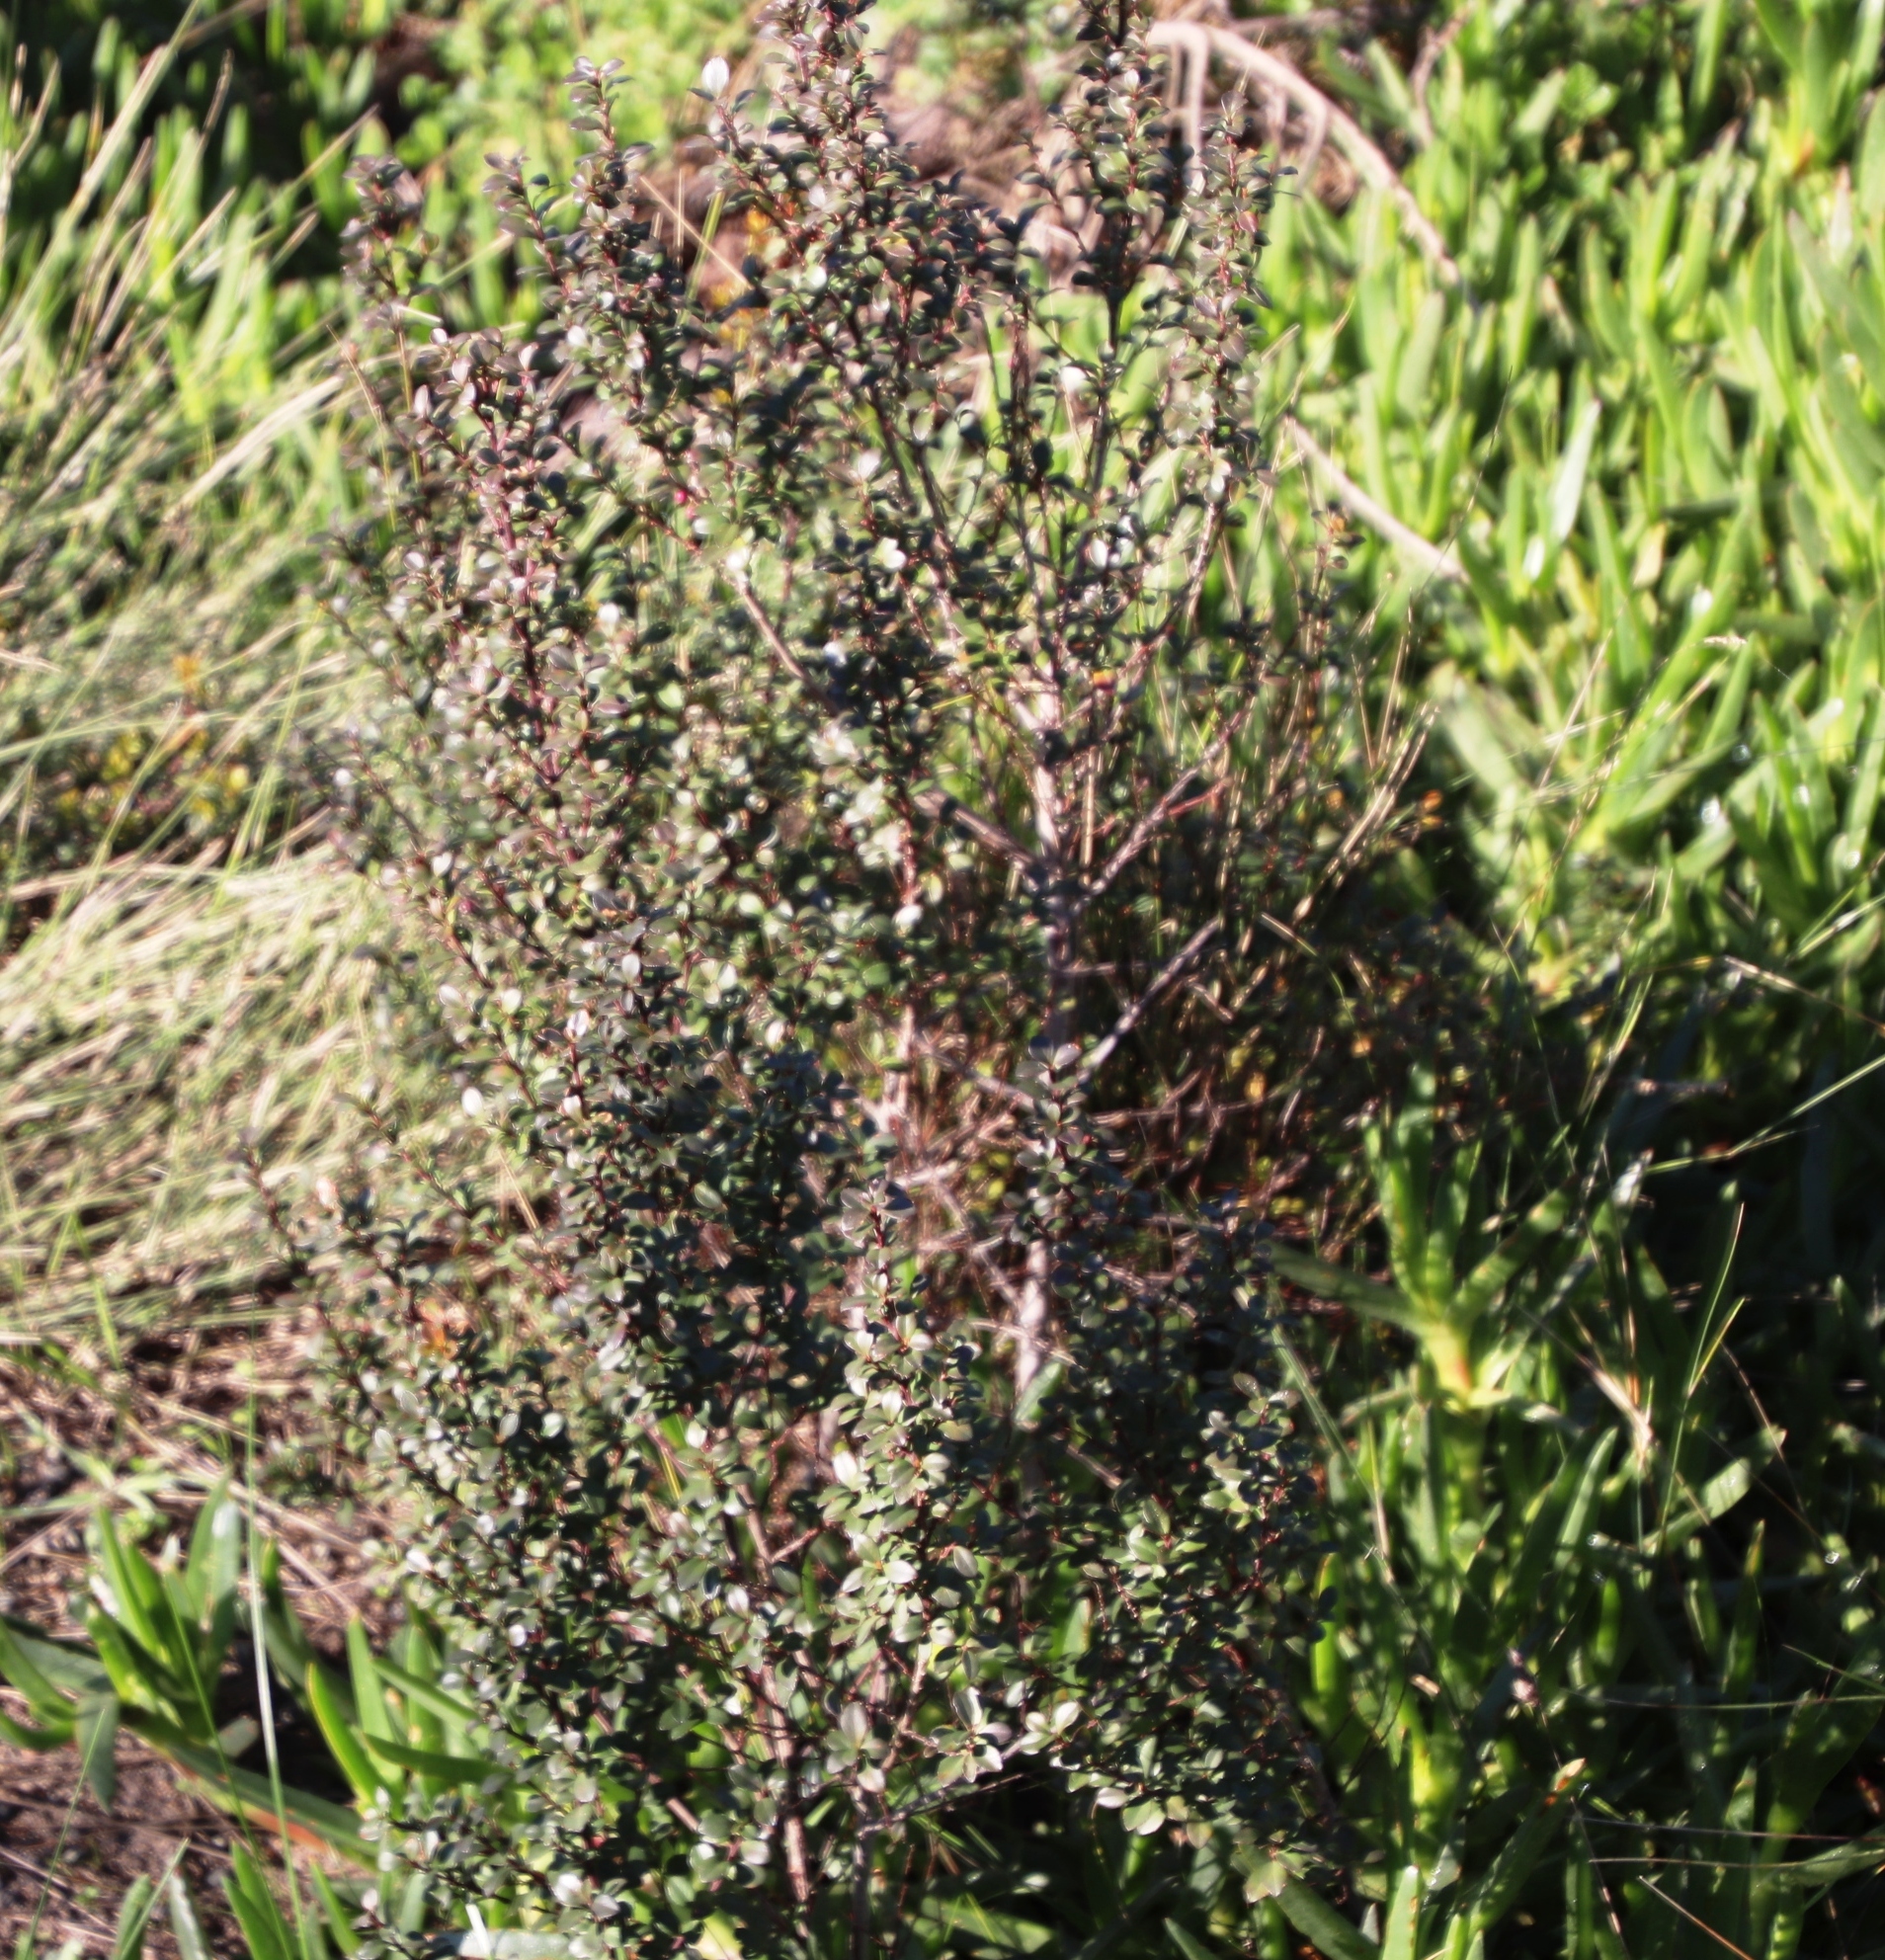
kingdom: Plantae
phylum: Tracheophyta
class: Magnoliopsida
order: Ericales
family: Primulaceae
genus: Myrsine
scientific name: Myrsine africana
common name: African-boxwood
